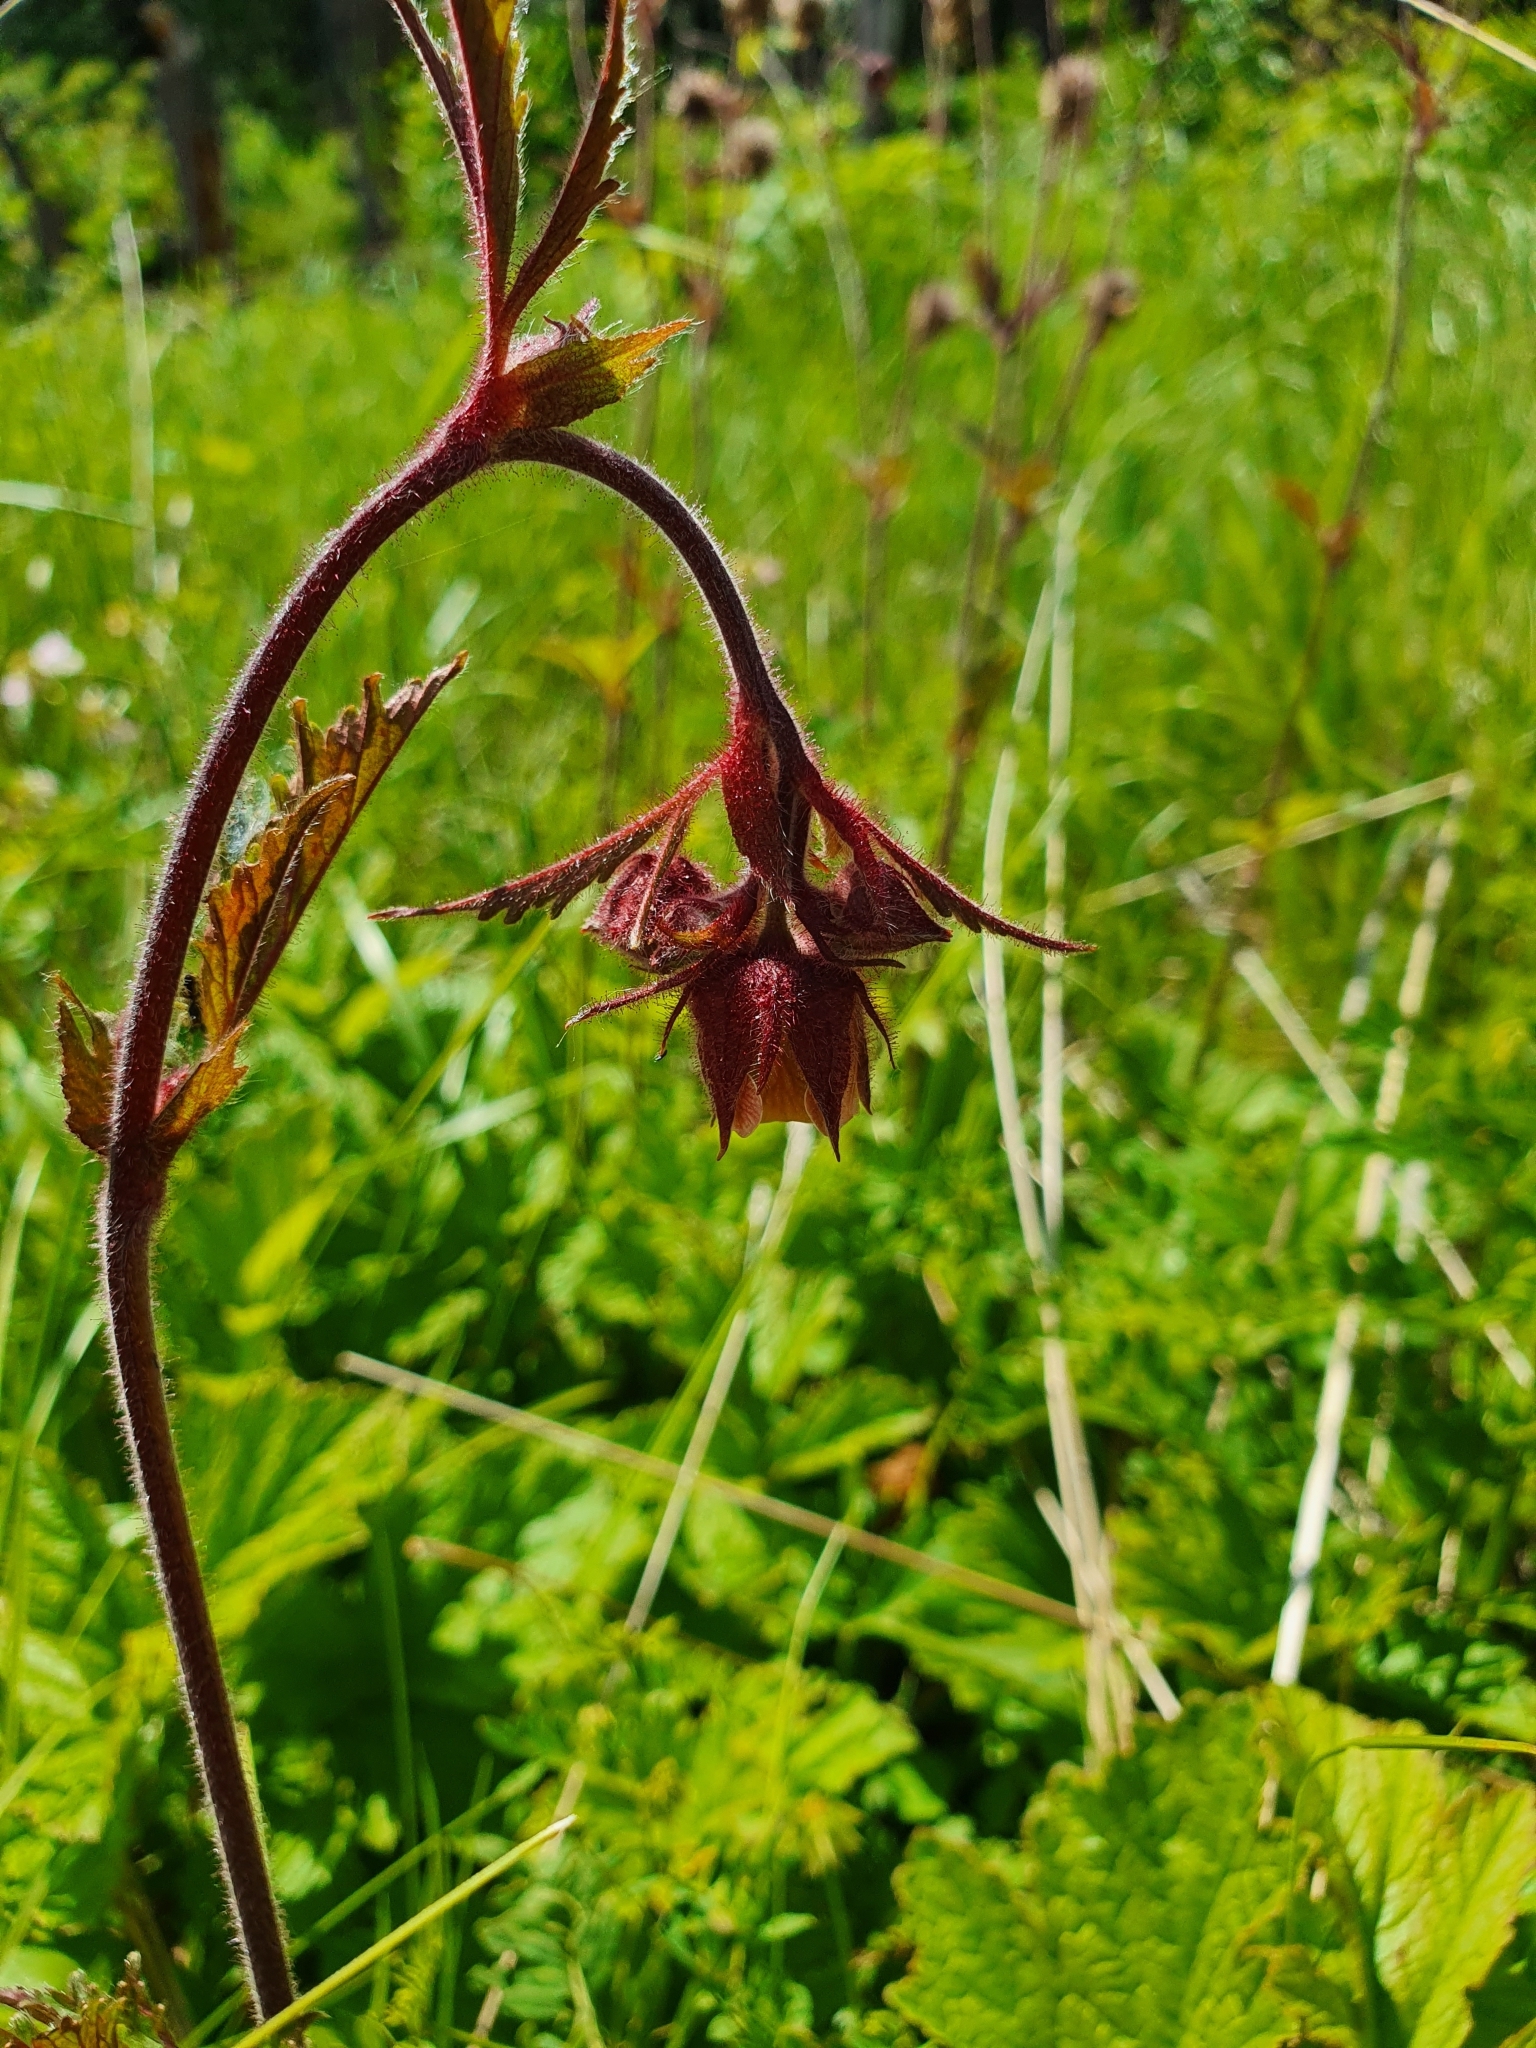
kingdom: Plantae
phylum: Tracheophyta
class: Magnoliopsida
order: Rosales
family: Rosaceae
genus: Geum
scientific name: Geum rivale
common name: Water avens
